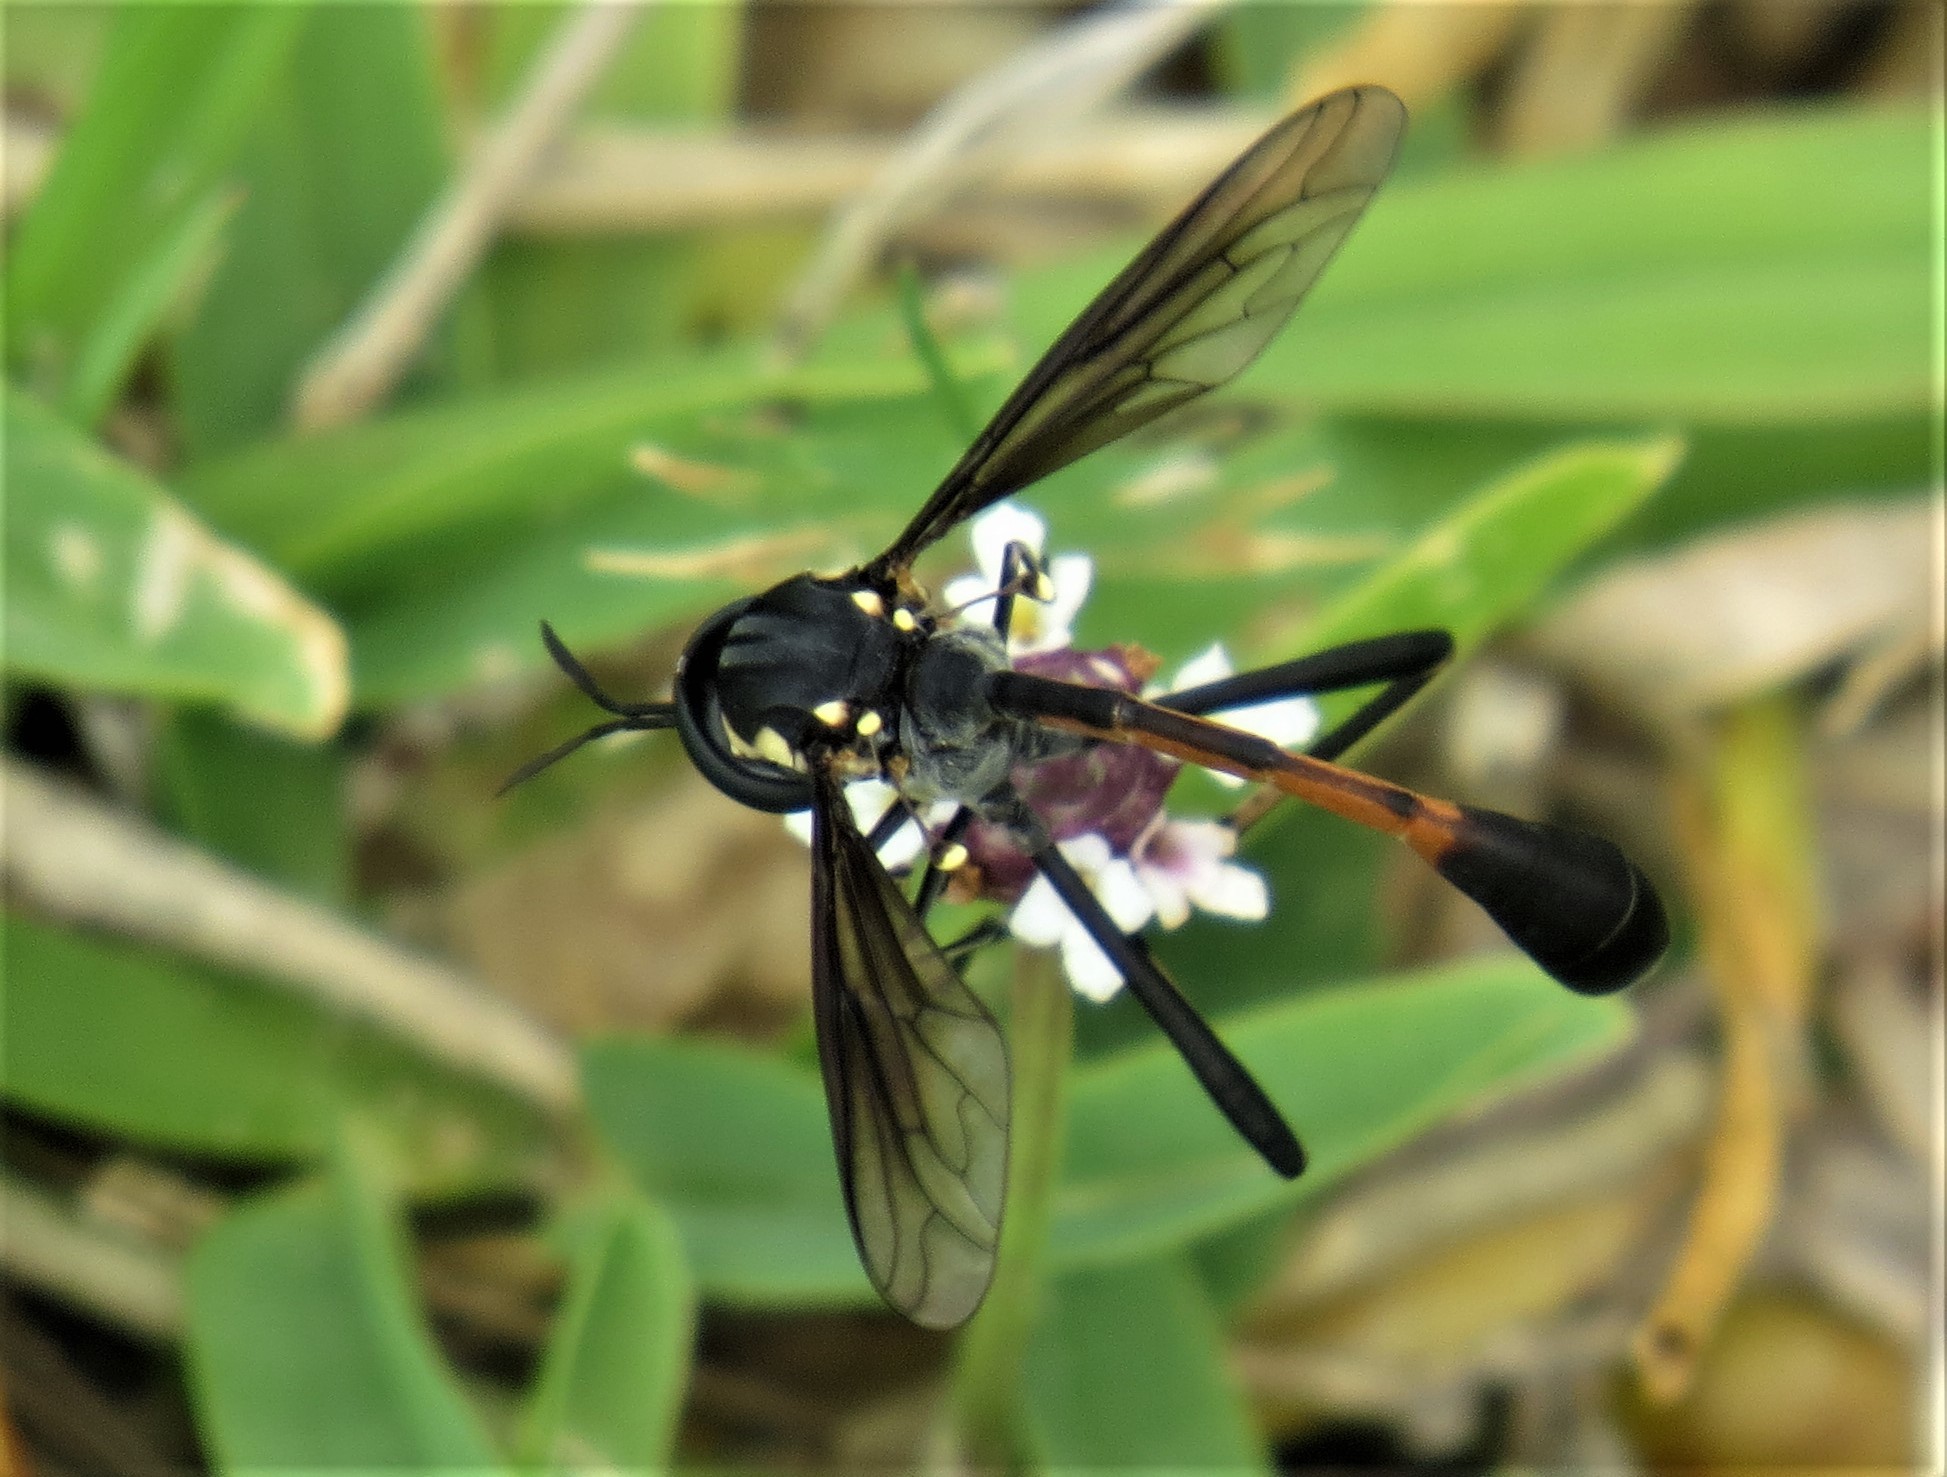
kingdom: Animalia
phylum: Arthropoda
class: Insecta
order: Diptera
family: Bombyliidae
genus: Systropus
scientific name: Systropus bicornis
